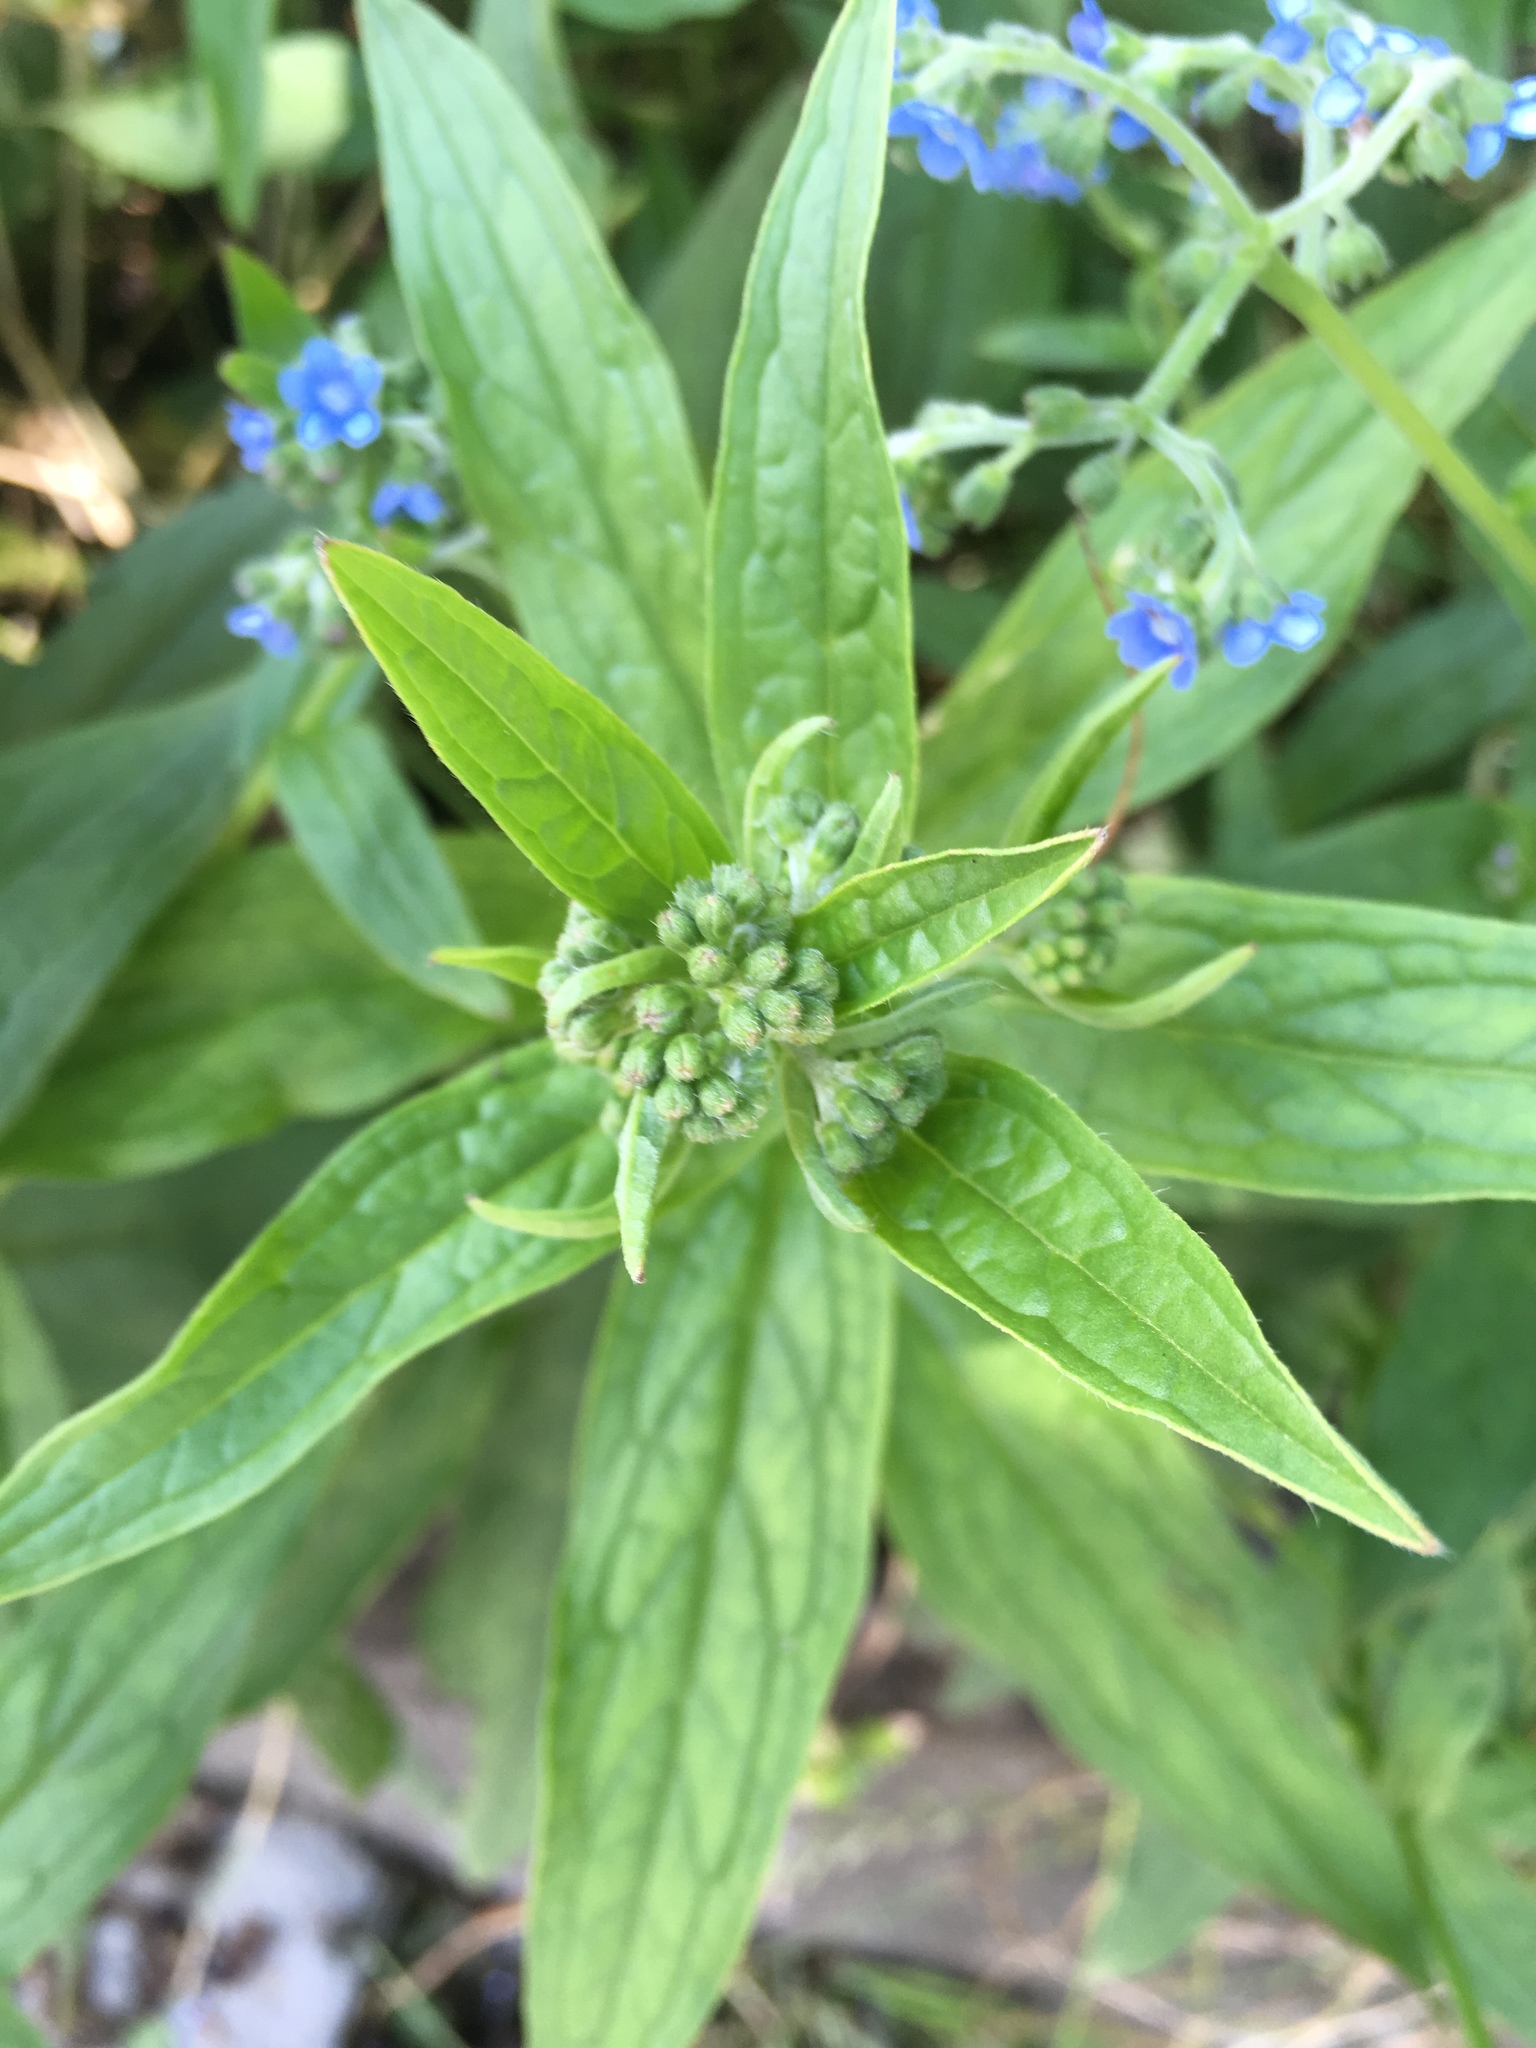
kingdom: Plantae
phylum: Tracheophyta
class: Magnoliopsida
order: Boraginales
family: Boraginaceae
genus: Cynoglossum
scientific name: Cynoglossum zeylanicum
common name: Ceylon hound's tongue
